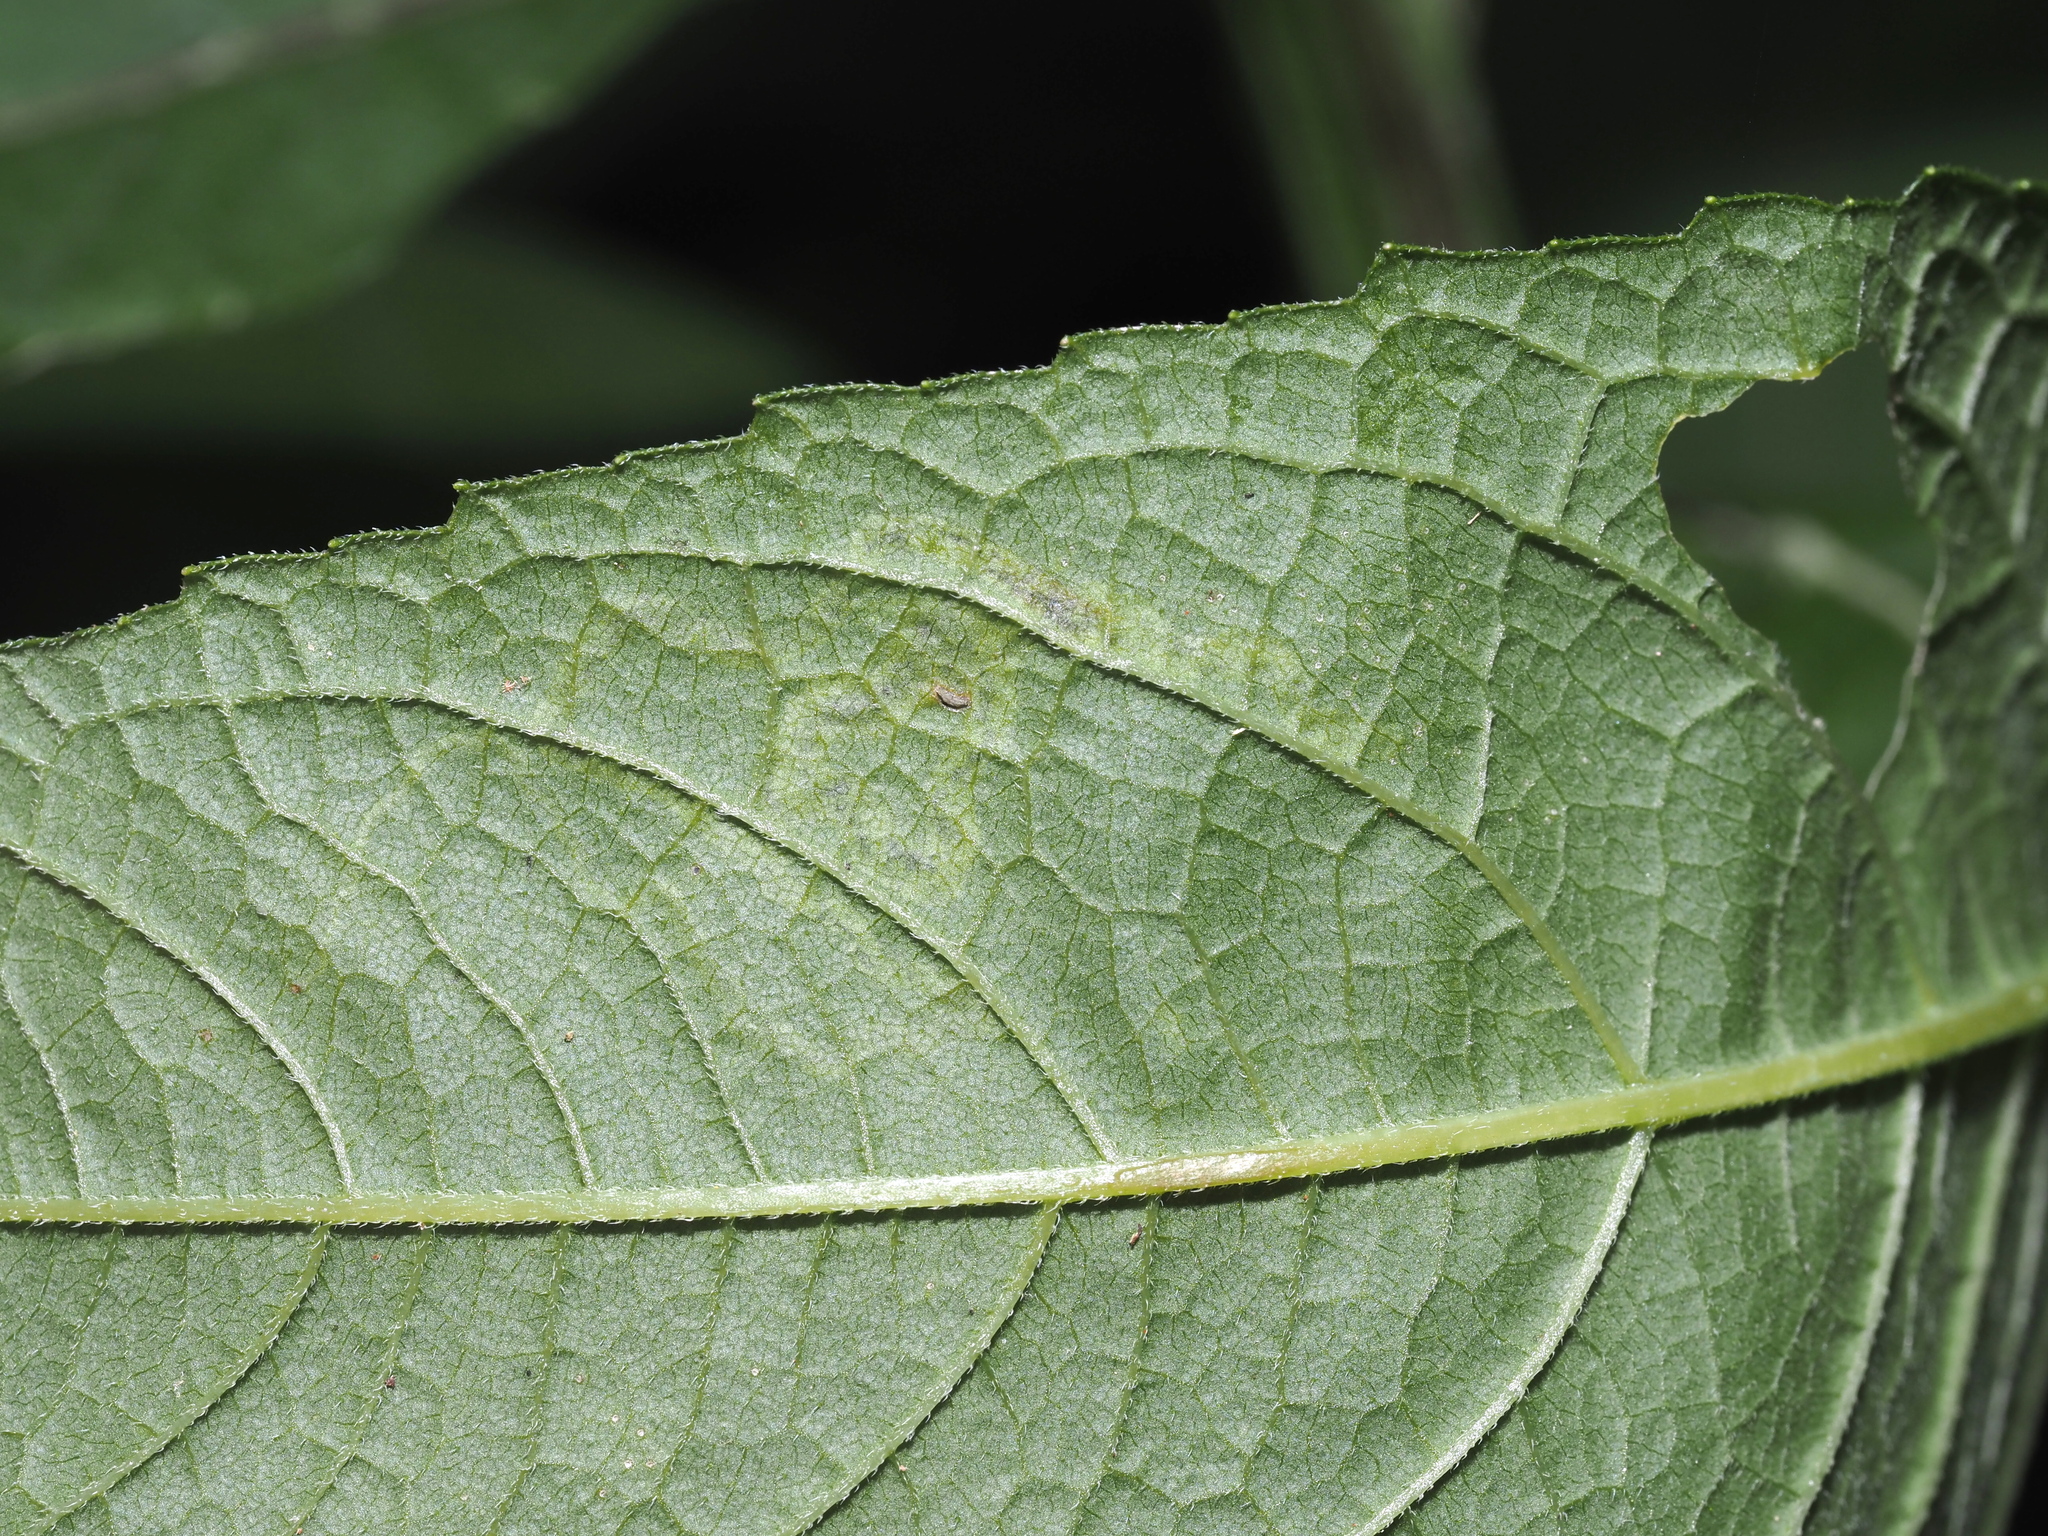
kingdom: Animalia
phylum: Arthropoda
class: Insecta
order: Diptera
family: Agromyzidae
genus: Liriomyza
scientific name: Liriomyza
